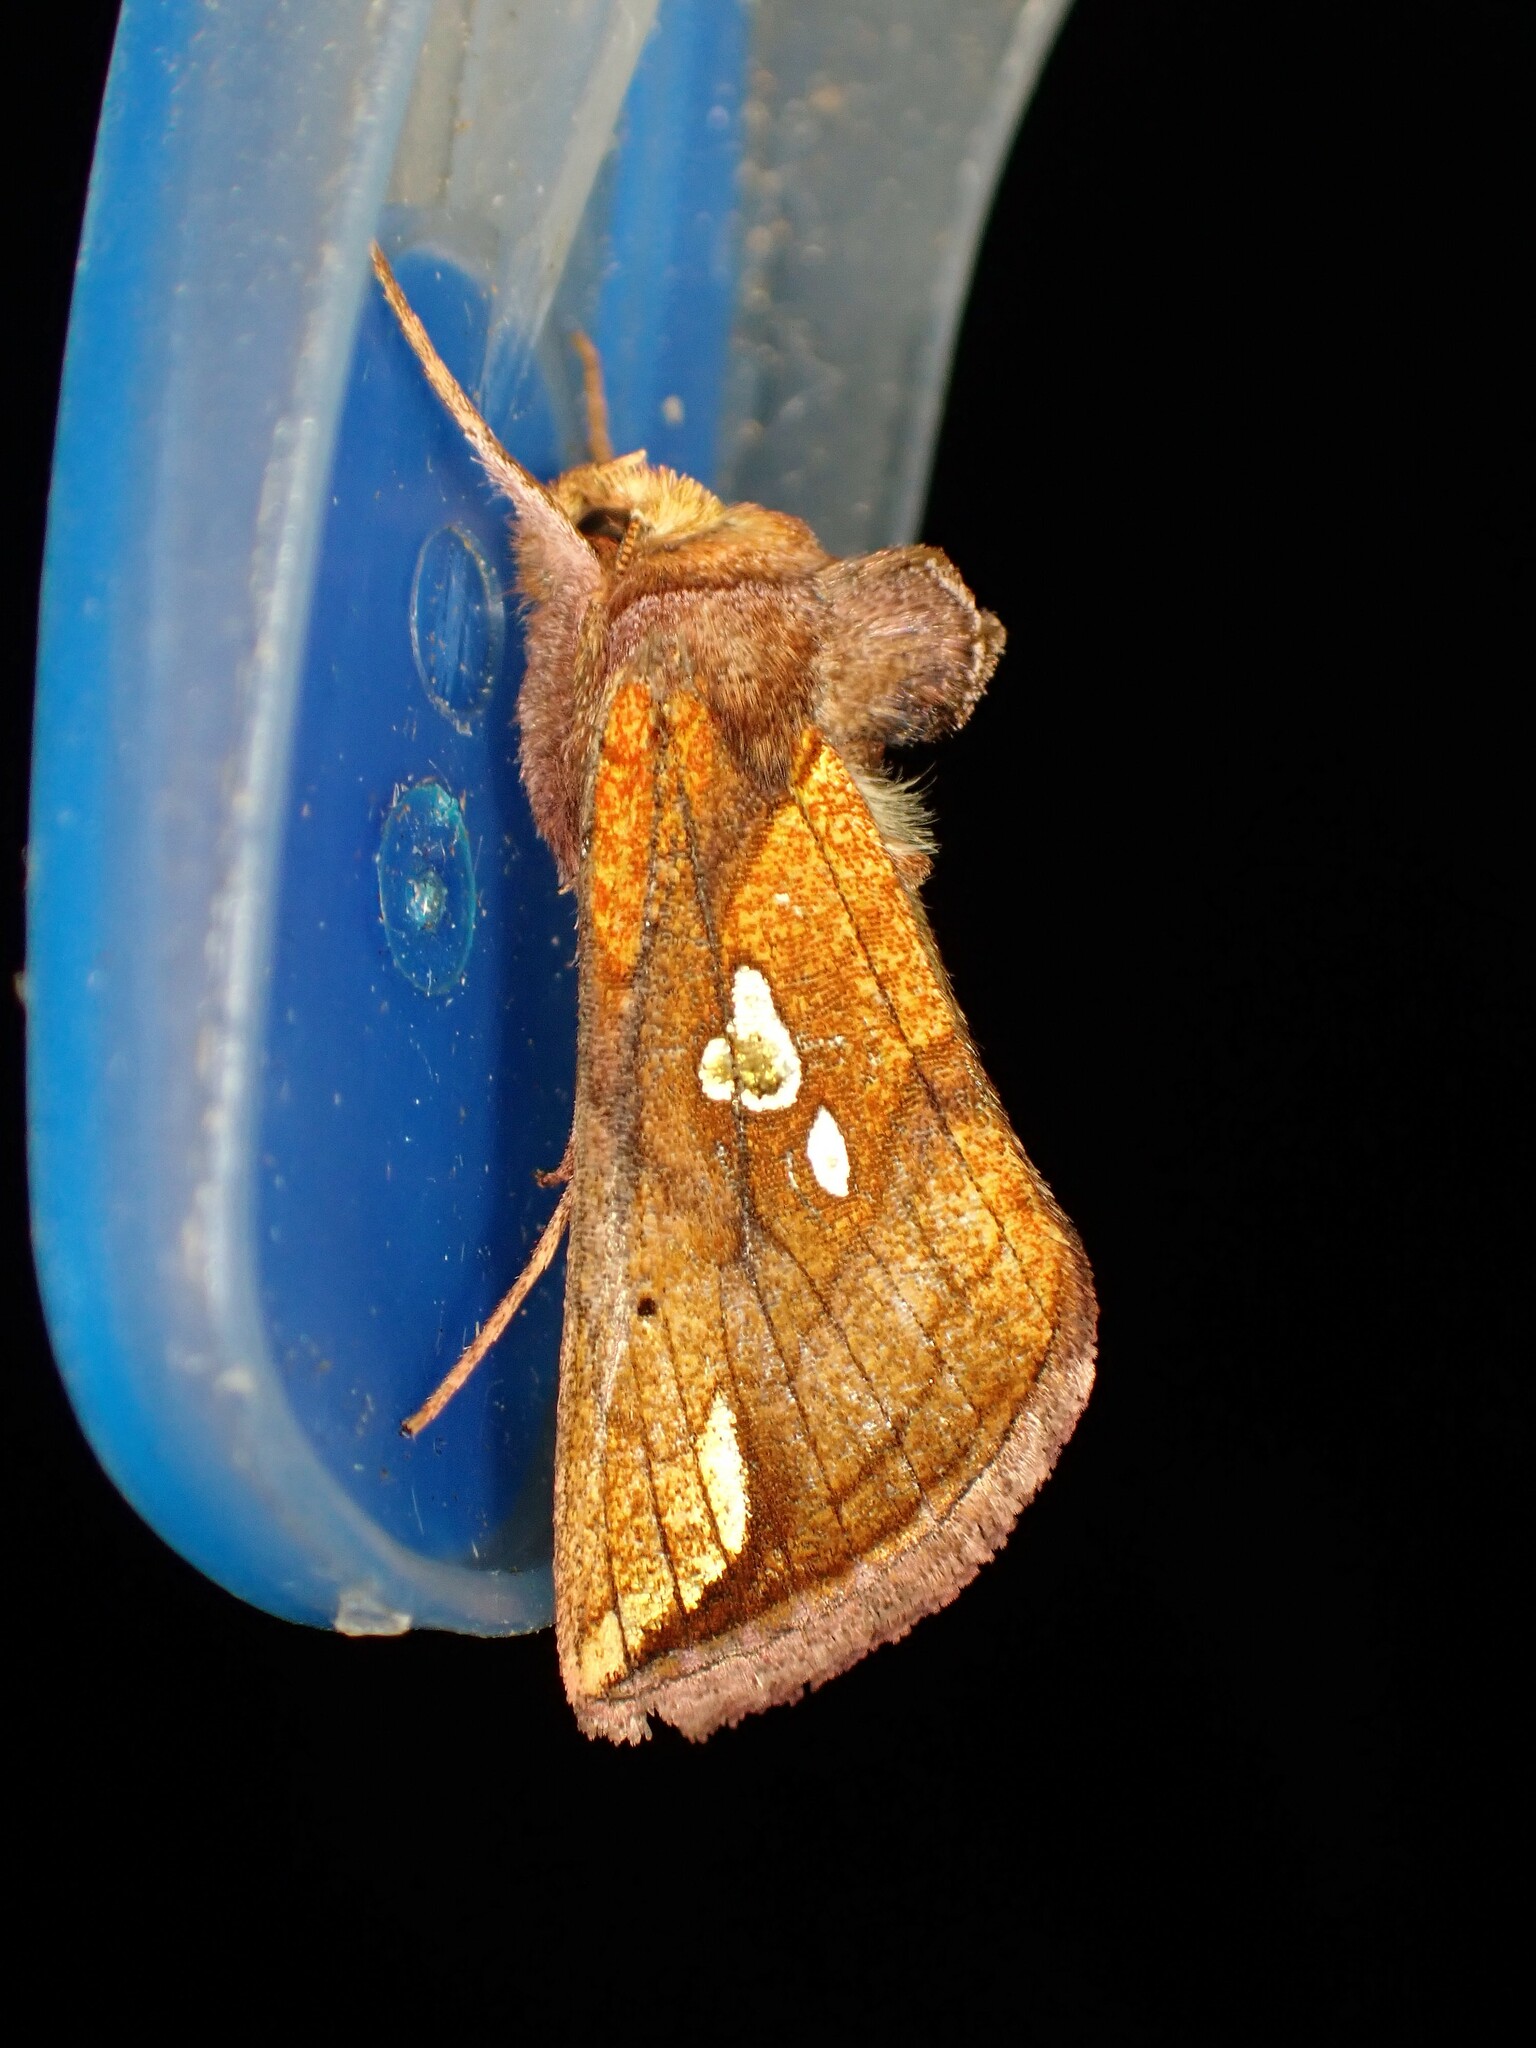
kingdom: Animalia
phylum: Arthropoda
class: Insecta
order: Lepidoptera
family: Noctuidae
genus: Plusia
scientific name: Plusia putnami
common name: Lempke's gold spot
